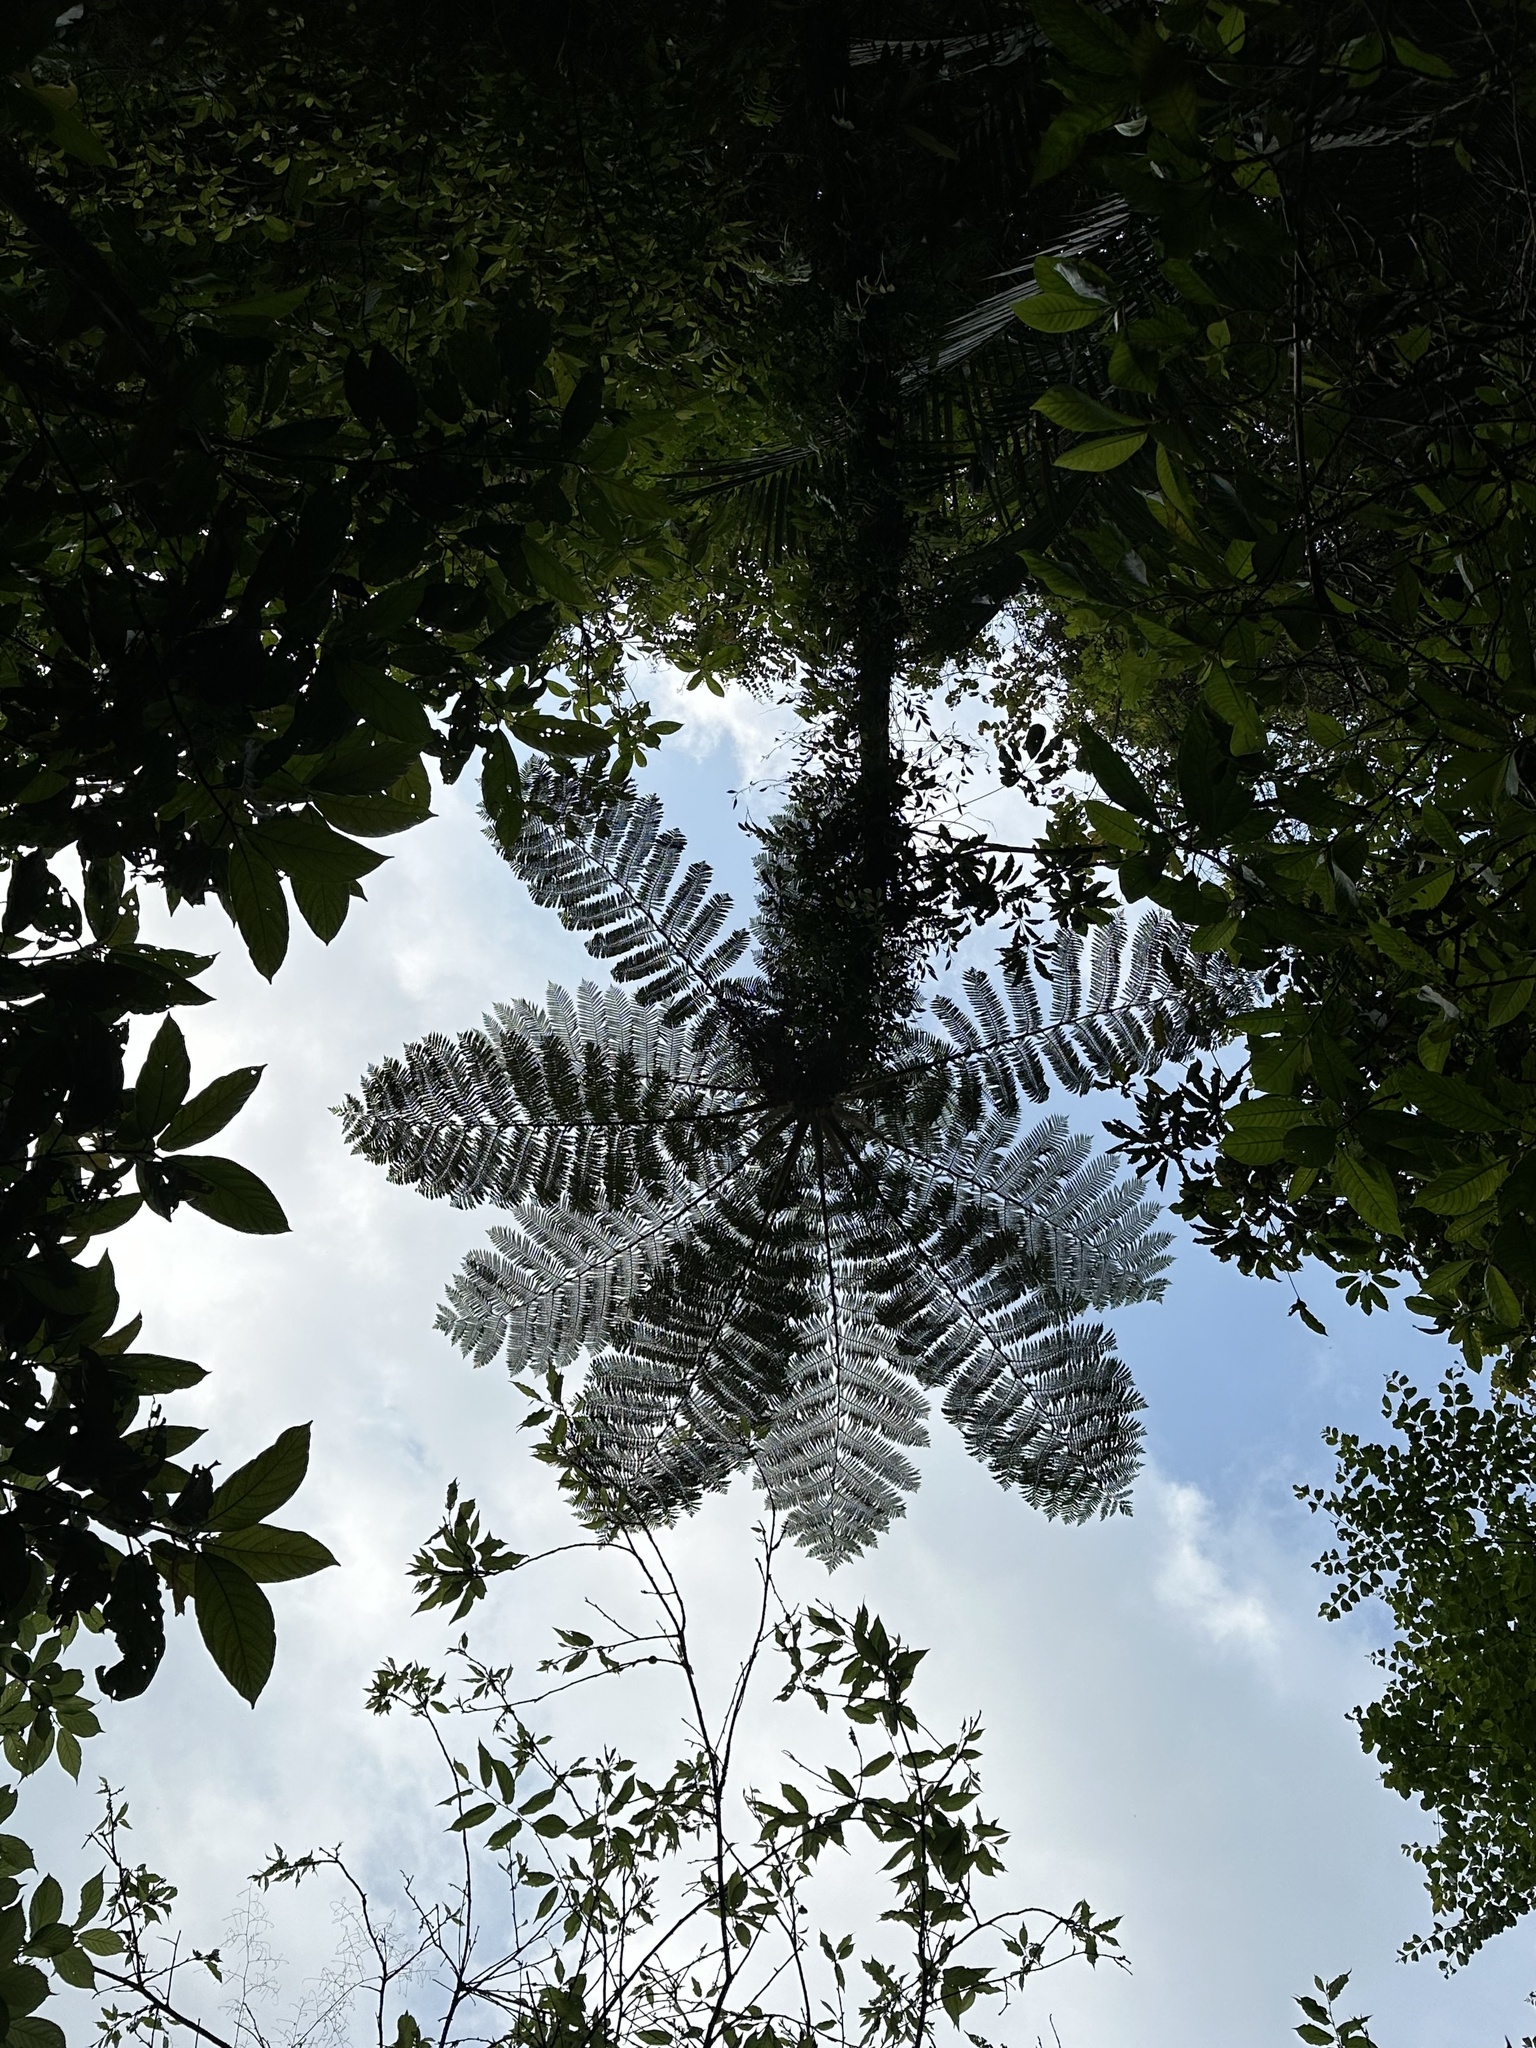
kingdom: Plantae
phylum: Tracheophyta
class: Polypodiopsida
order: Cyatheales
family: Cyatheaceae
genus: Alsophila
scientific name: Alsophila lepifera
